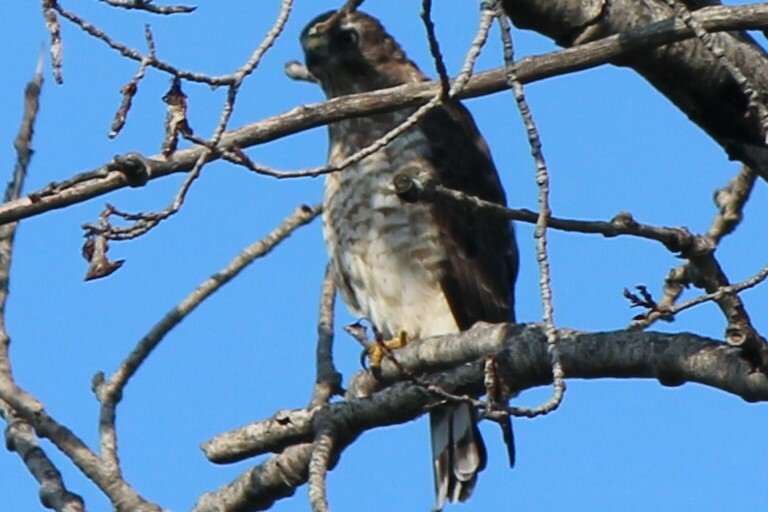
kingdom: Animalia
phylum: Chordata
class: Aves
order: Accipitriformes
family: Accipitridae
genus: Buteo
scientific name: Buteo platypterus
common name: Broad-winged hawk
